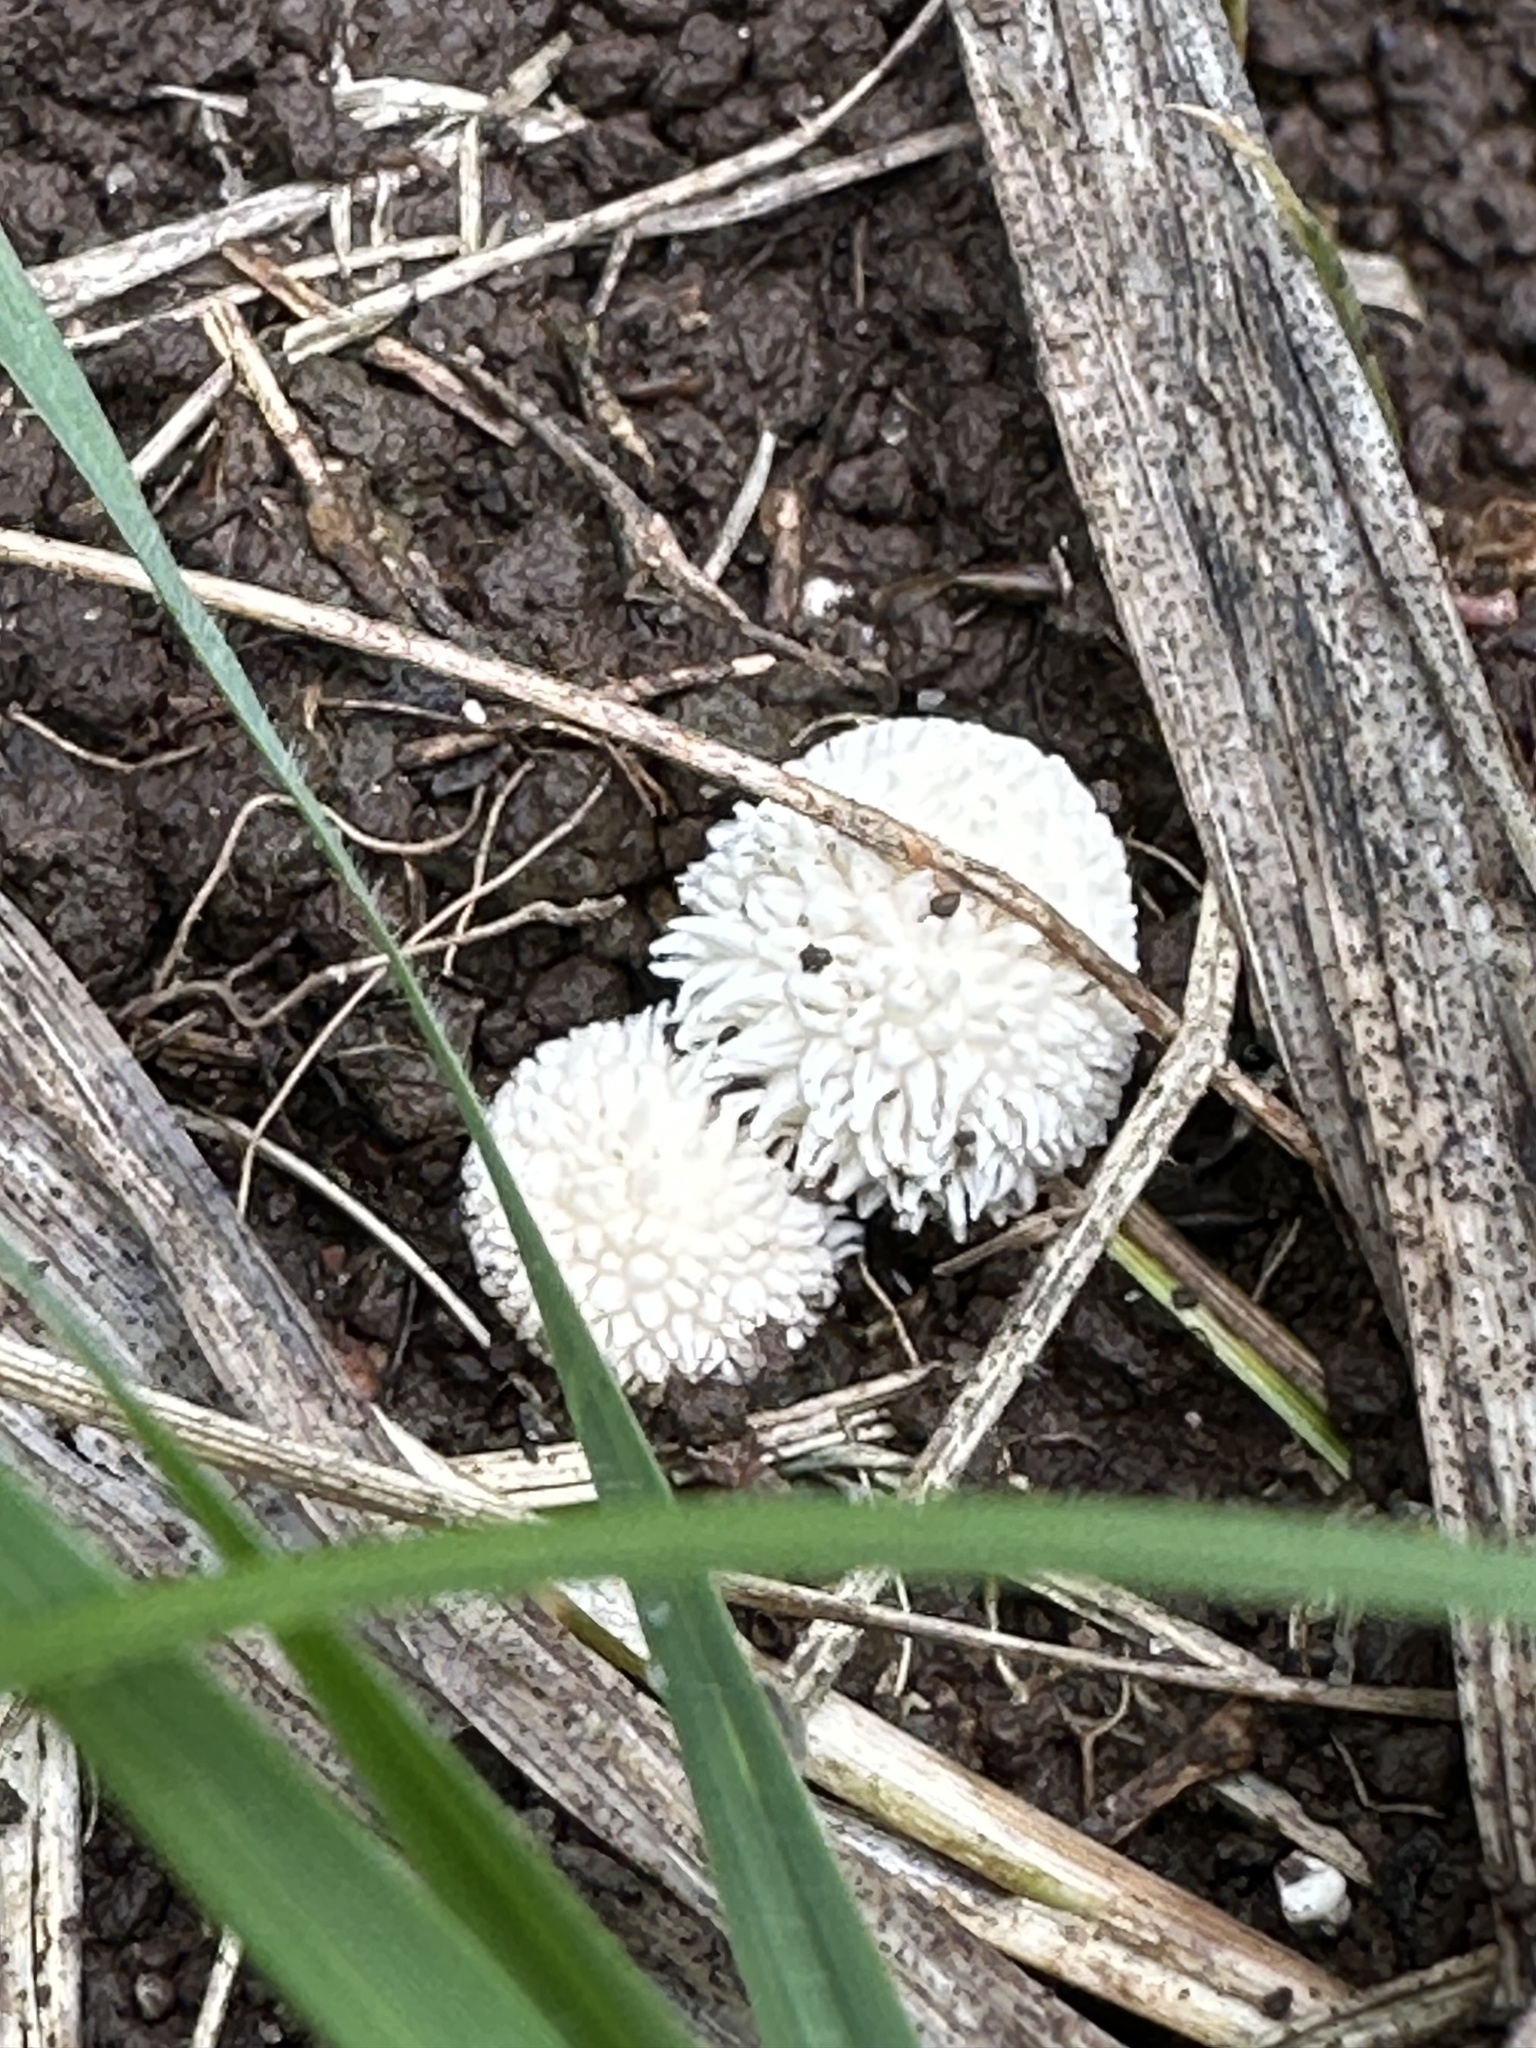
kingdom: Fungi
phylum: Basidiomycota
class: Agaricomycetes
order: Agaricales
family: Lycoperdaceae
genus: Lycoperdon
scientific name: Lycoperdon curtisii
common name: Curtis's puffball
